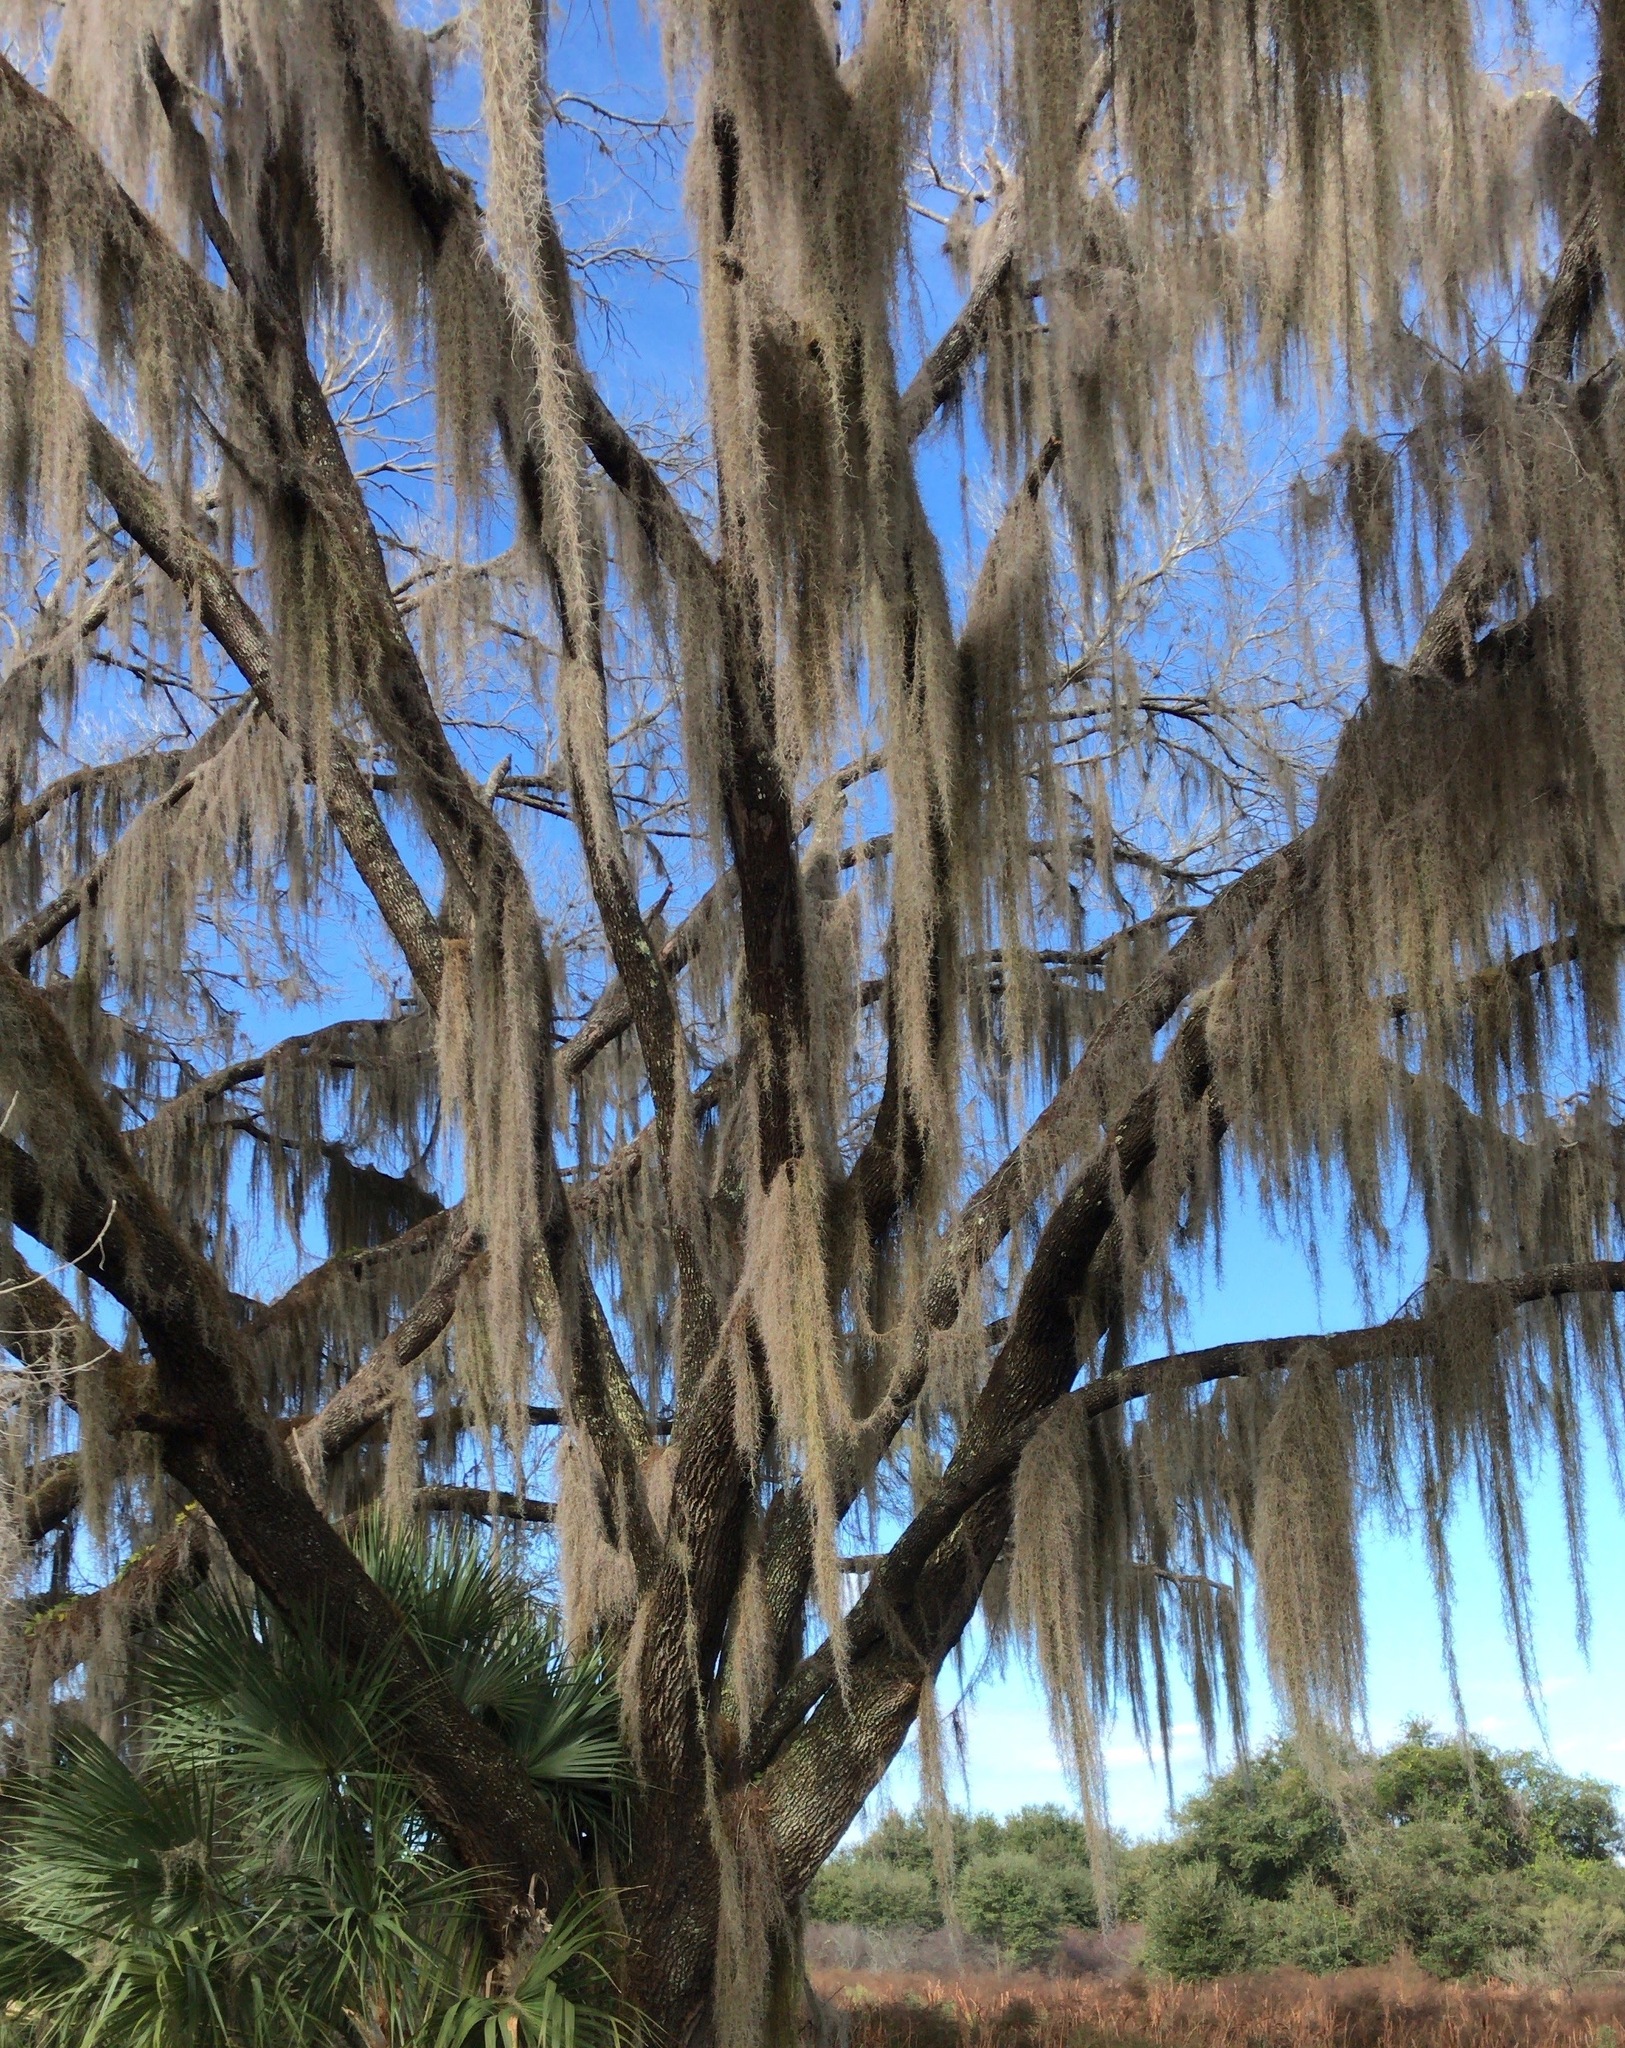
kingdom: Plantae
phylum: Tracheophyta
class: Liliopsida
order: Poales
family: Bromeliaceae
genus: Tillandsia
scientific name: Tillandsia usneoides
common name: Spanish moss
